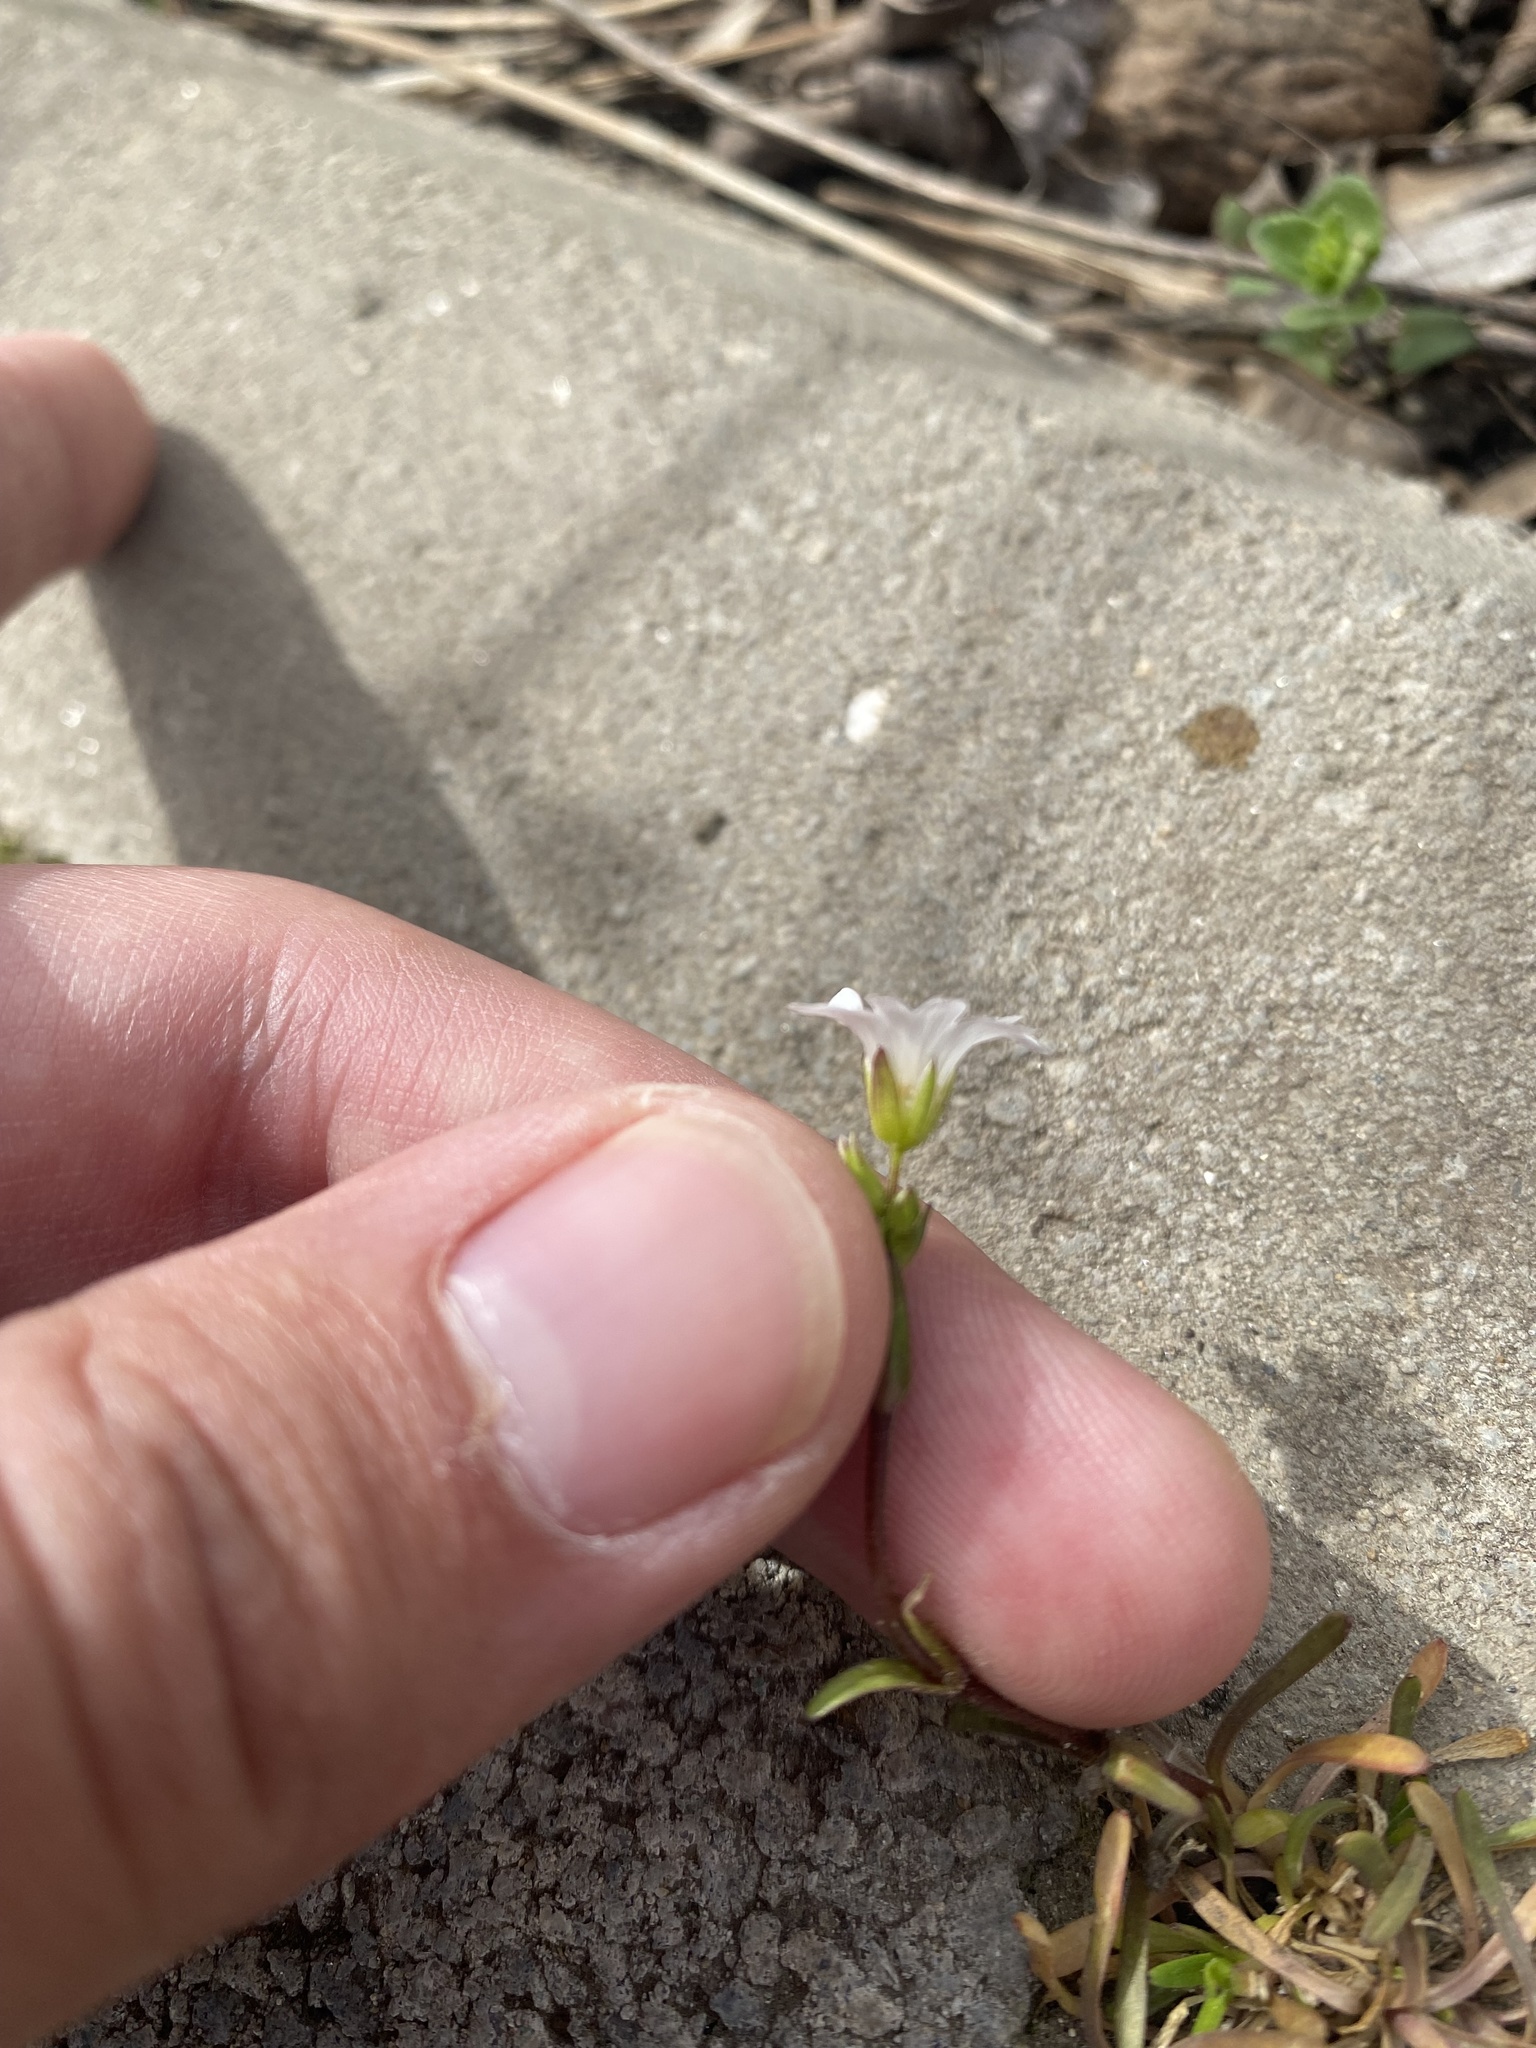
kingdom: Plantae
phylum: Tracheophyta
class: Magnoliopsida
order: Caryophyllales
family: Caryophyllaceae
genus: Dichodon
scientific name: Dichodon viscidum
